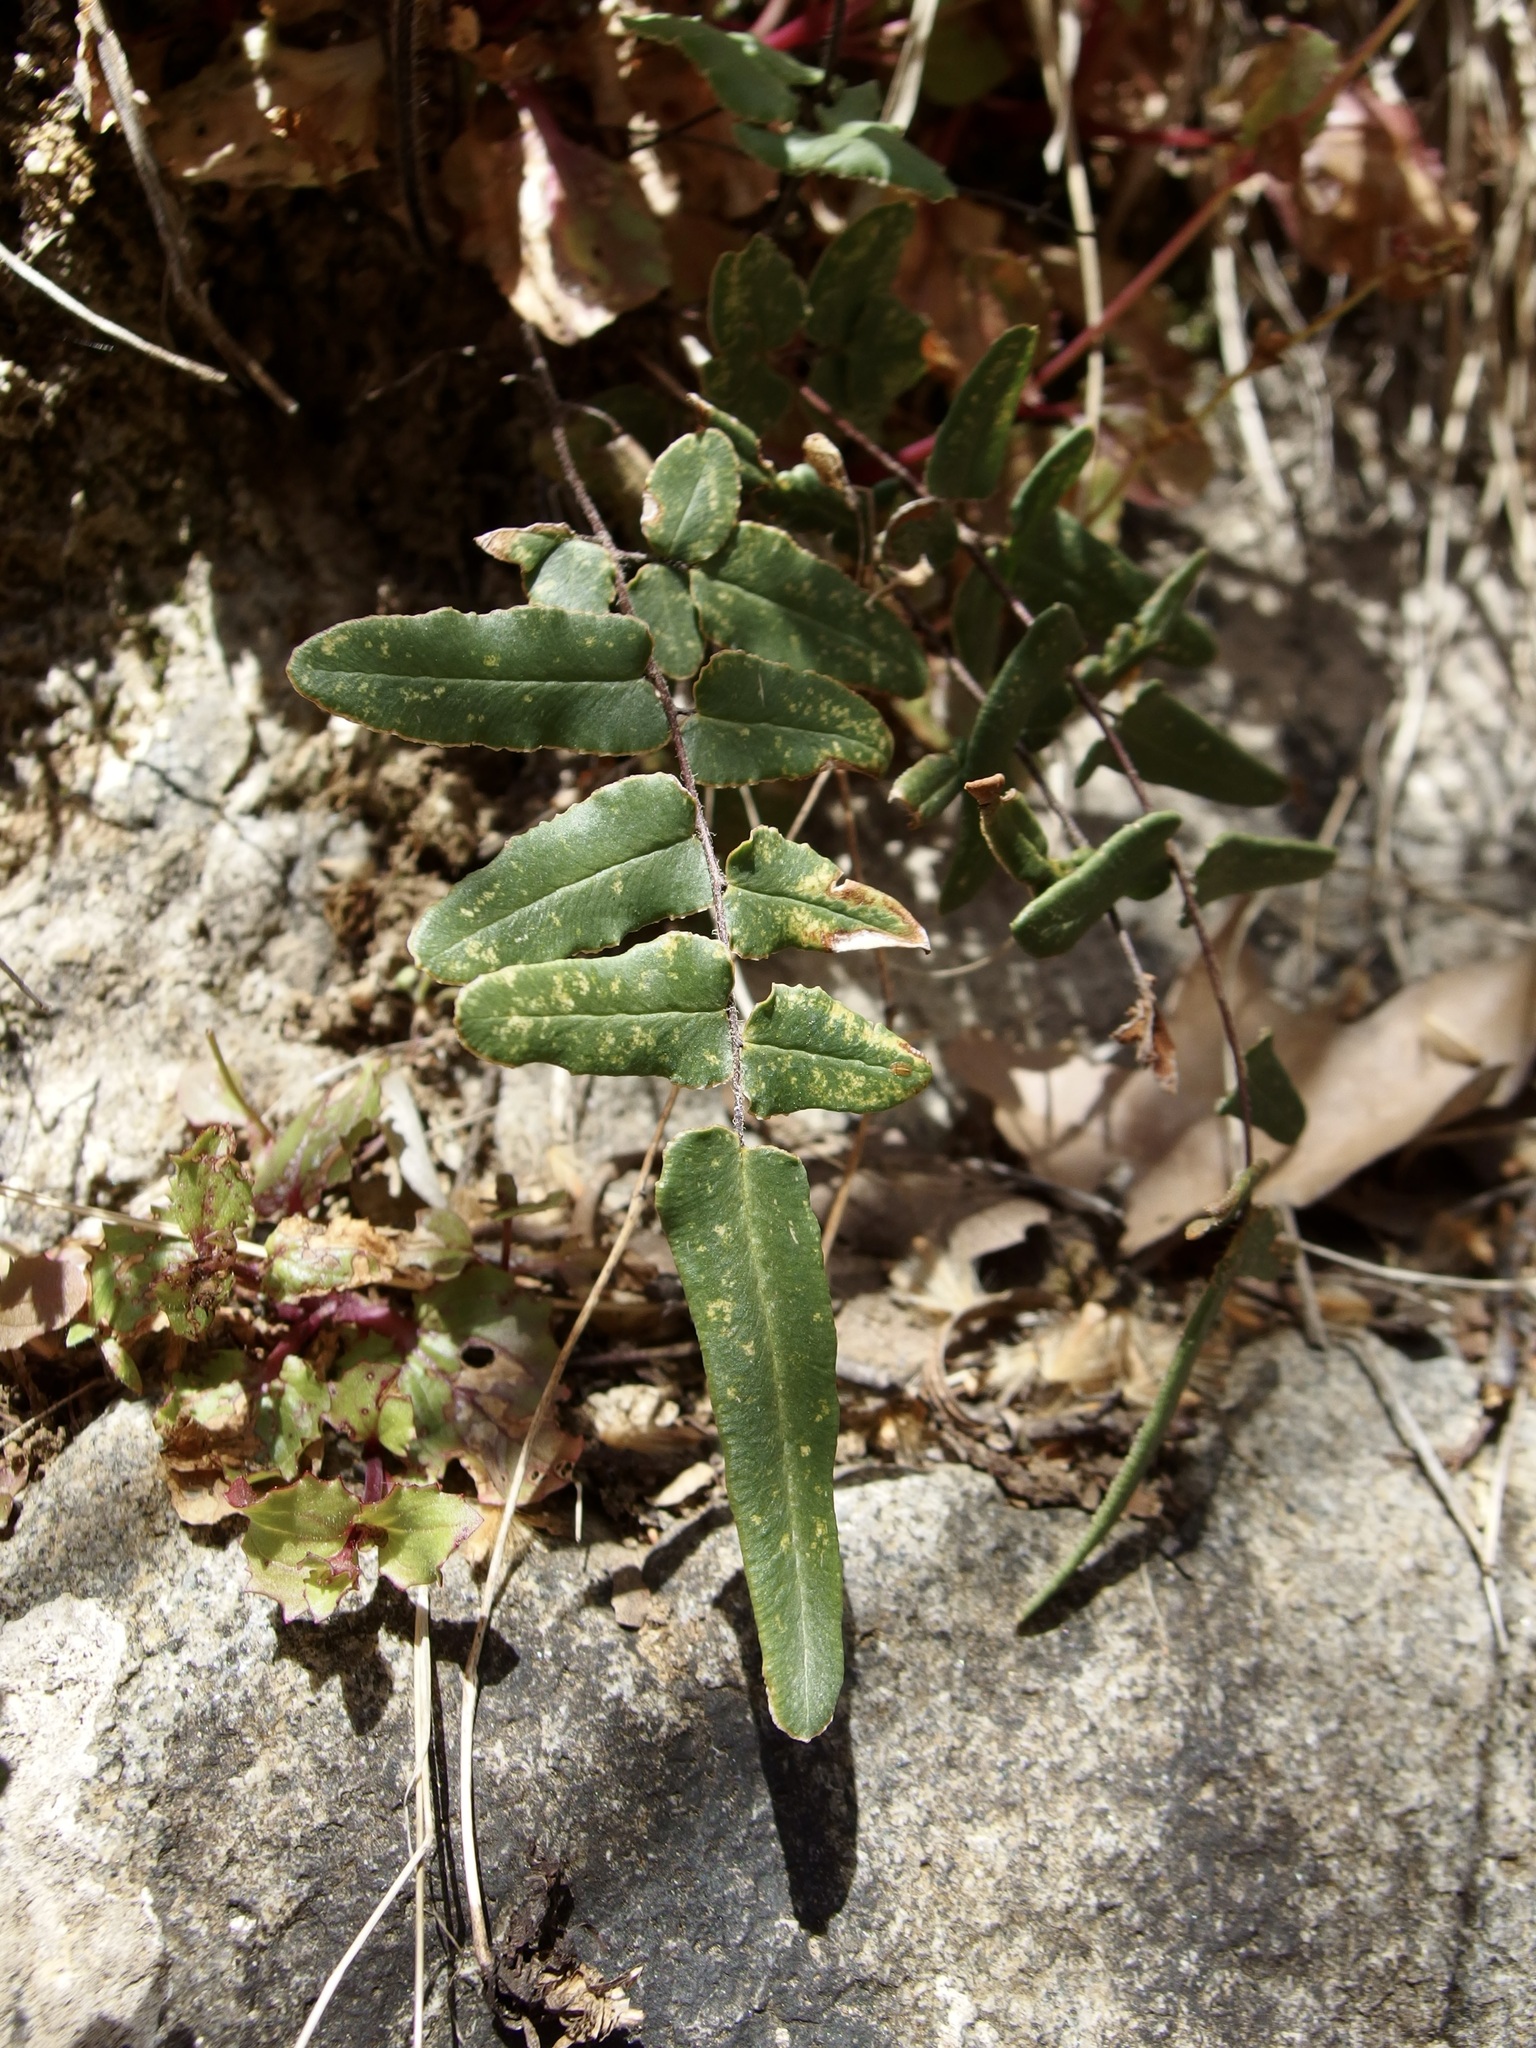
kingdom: Plantae
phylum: Tracheophyta
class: Polypodiopsida
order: Polypodiales
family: Pteridaceae
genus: Pellaea
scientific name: Pellaea atropurpurea
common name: Hairy cliffbrake
